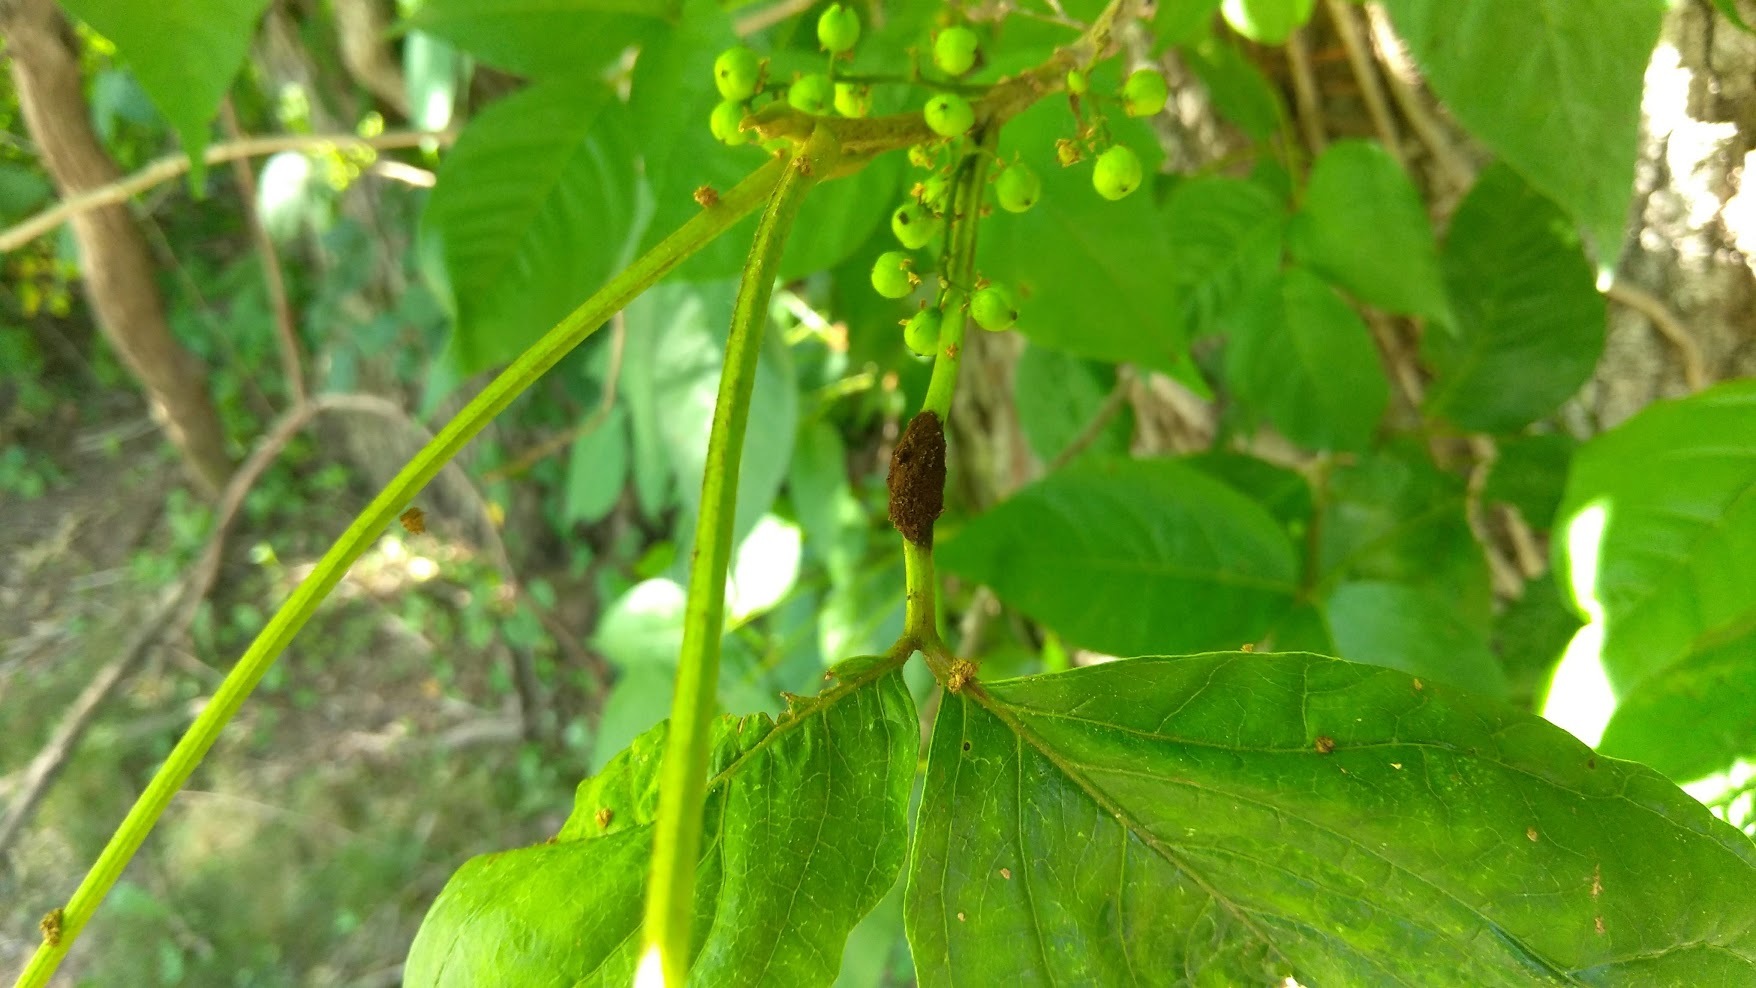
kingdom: Fungi
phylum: Basidiomycota
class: Pucciniomycetes
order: Pucciniales
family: Pileolariaceae
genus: Pileolaria
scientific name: Pileolaria brevipes
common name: Poison ivy rust
